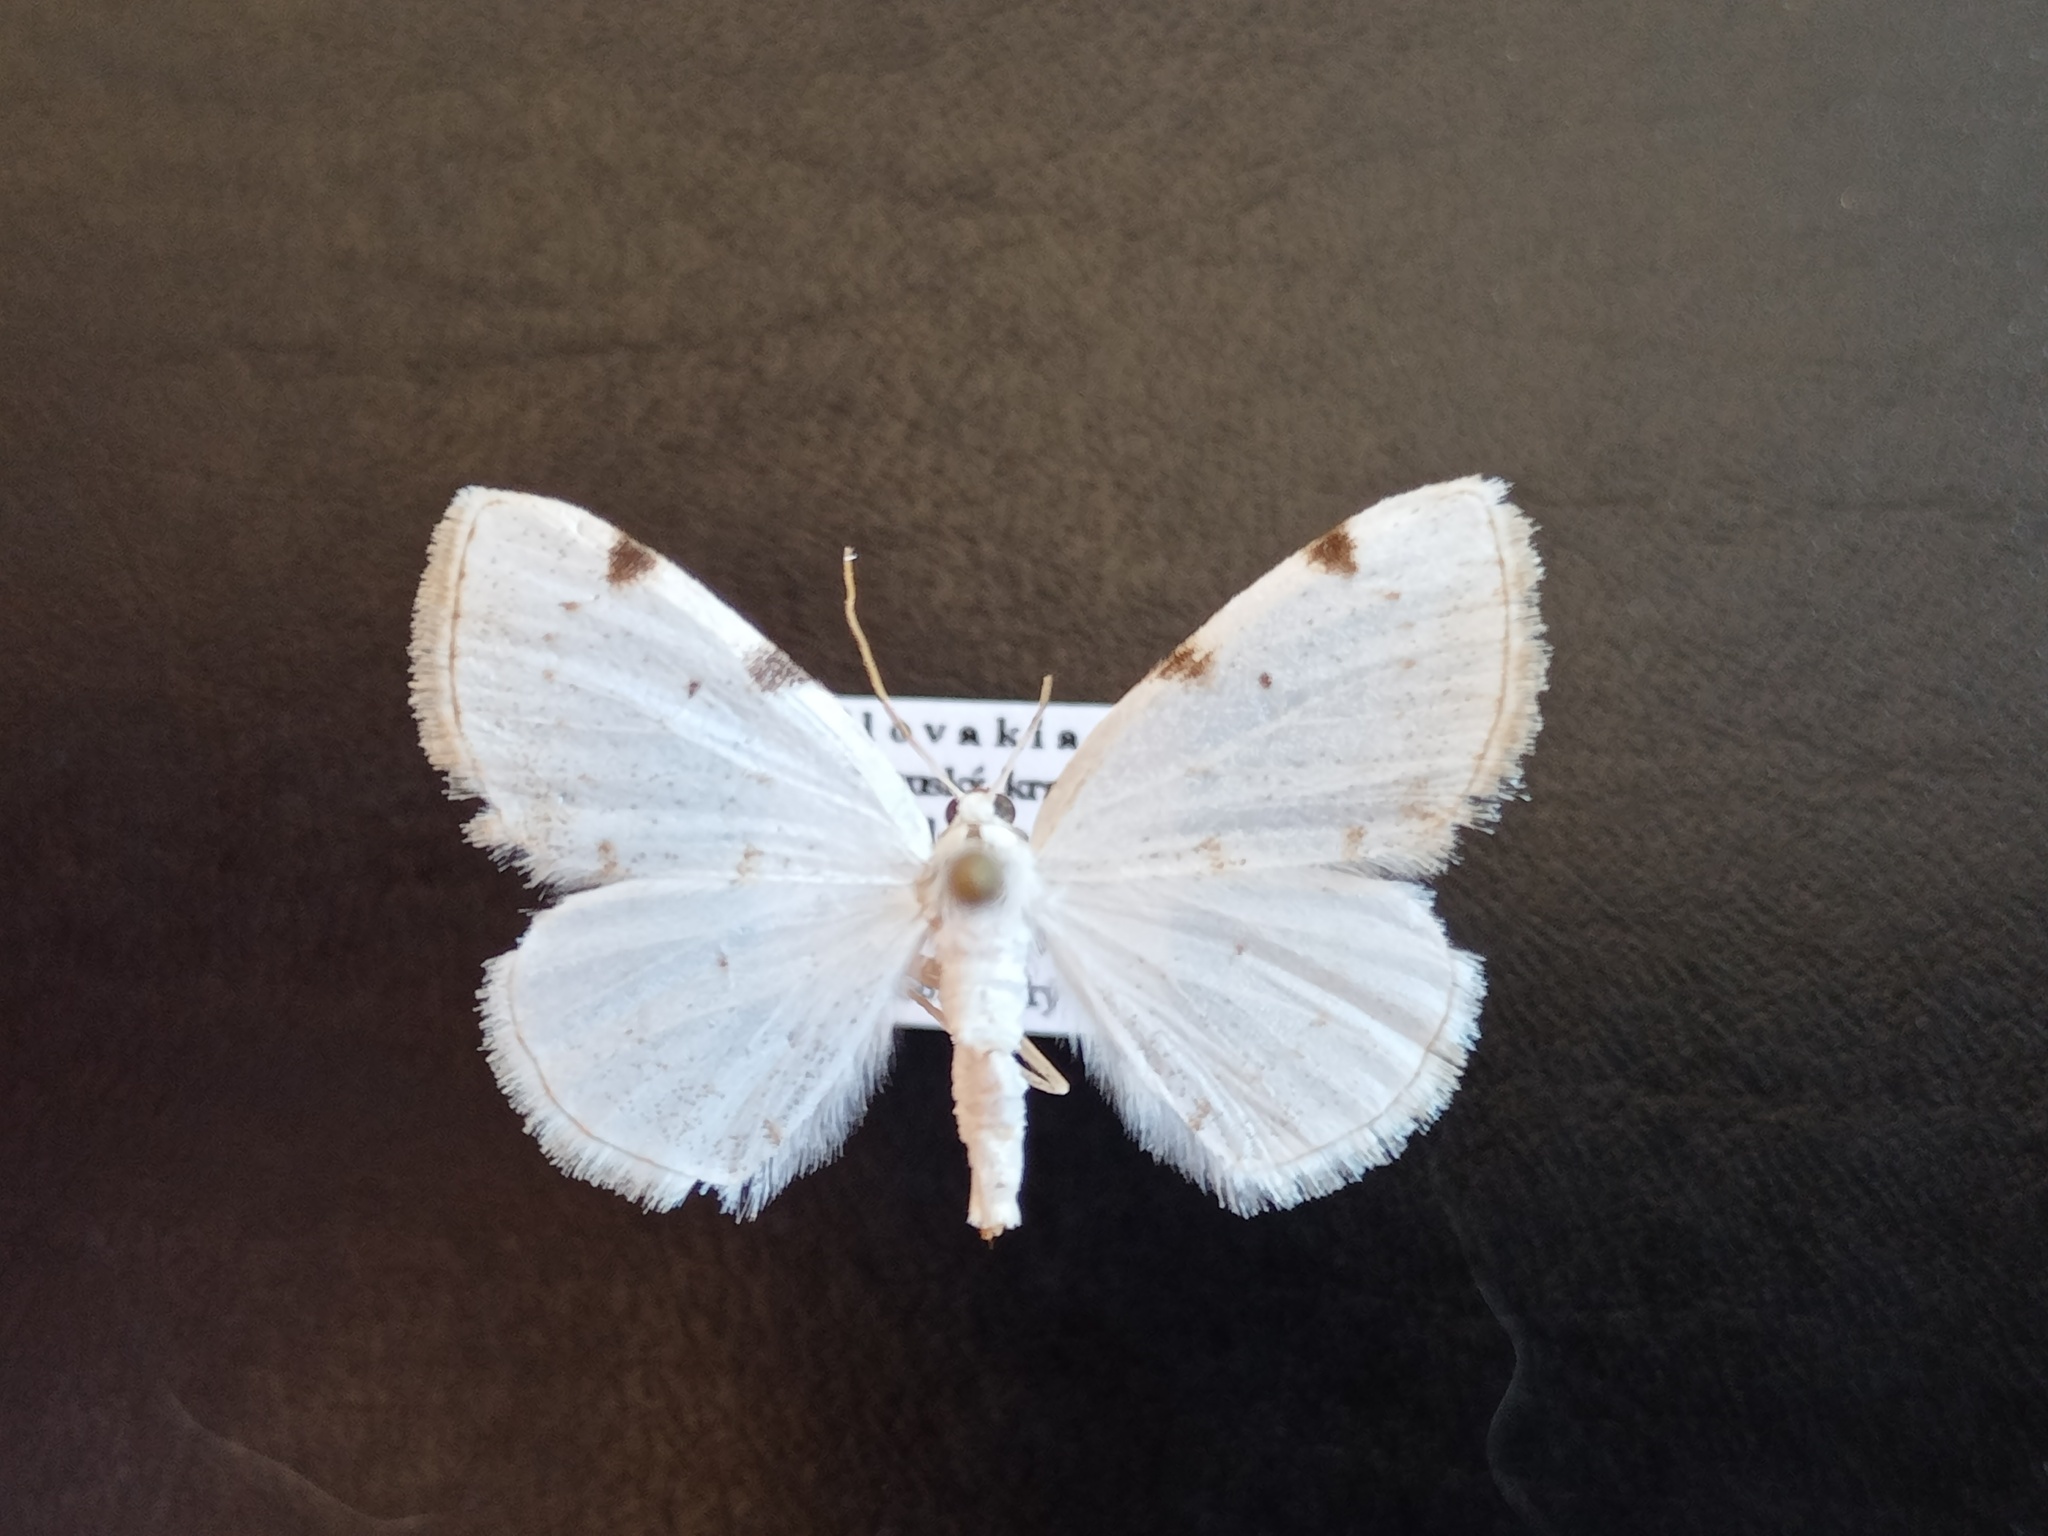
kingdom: Animalia
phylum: Arthropoda
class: Insecta
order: Lepidoptera
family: Geometridae
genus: Lomographa
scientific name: Lomographa bimaculata
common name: White-pinion spotted
